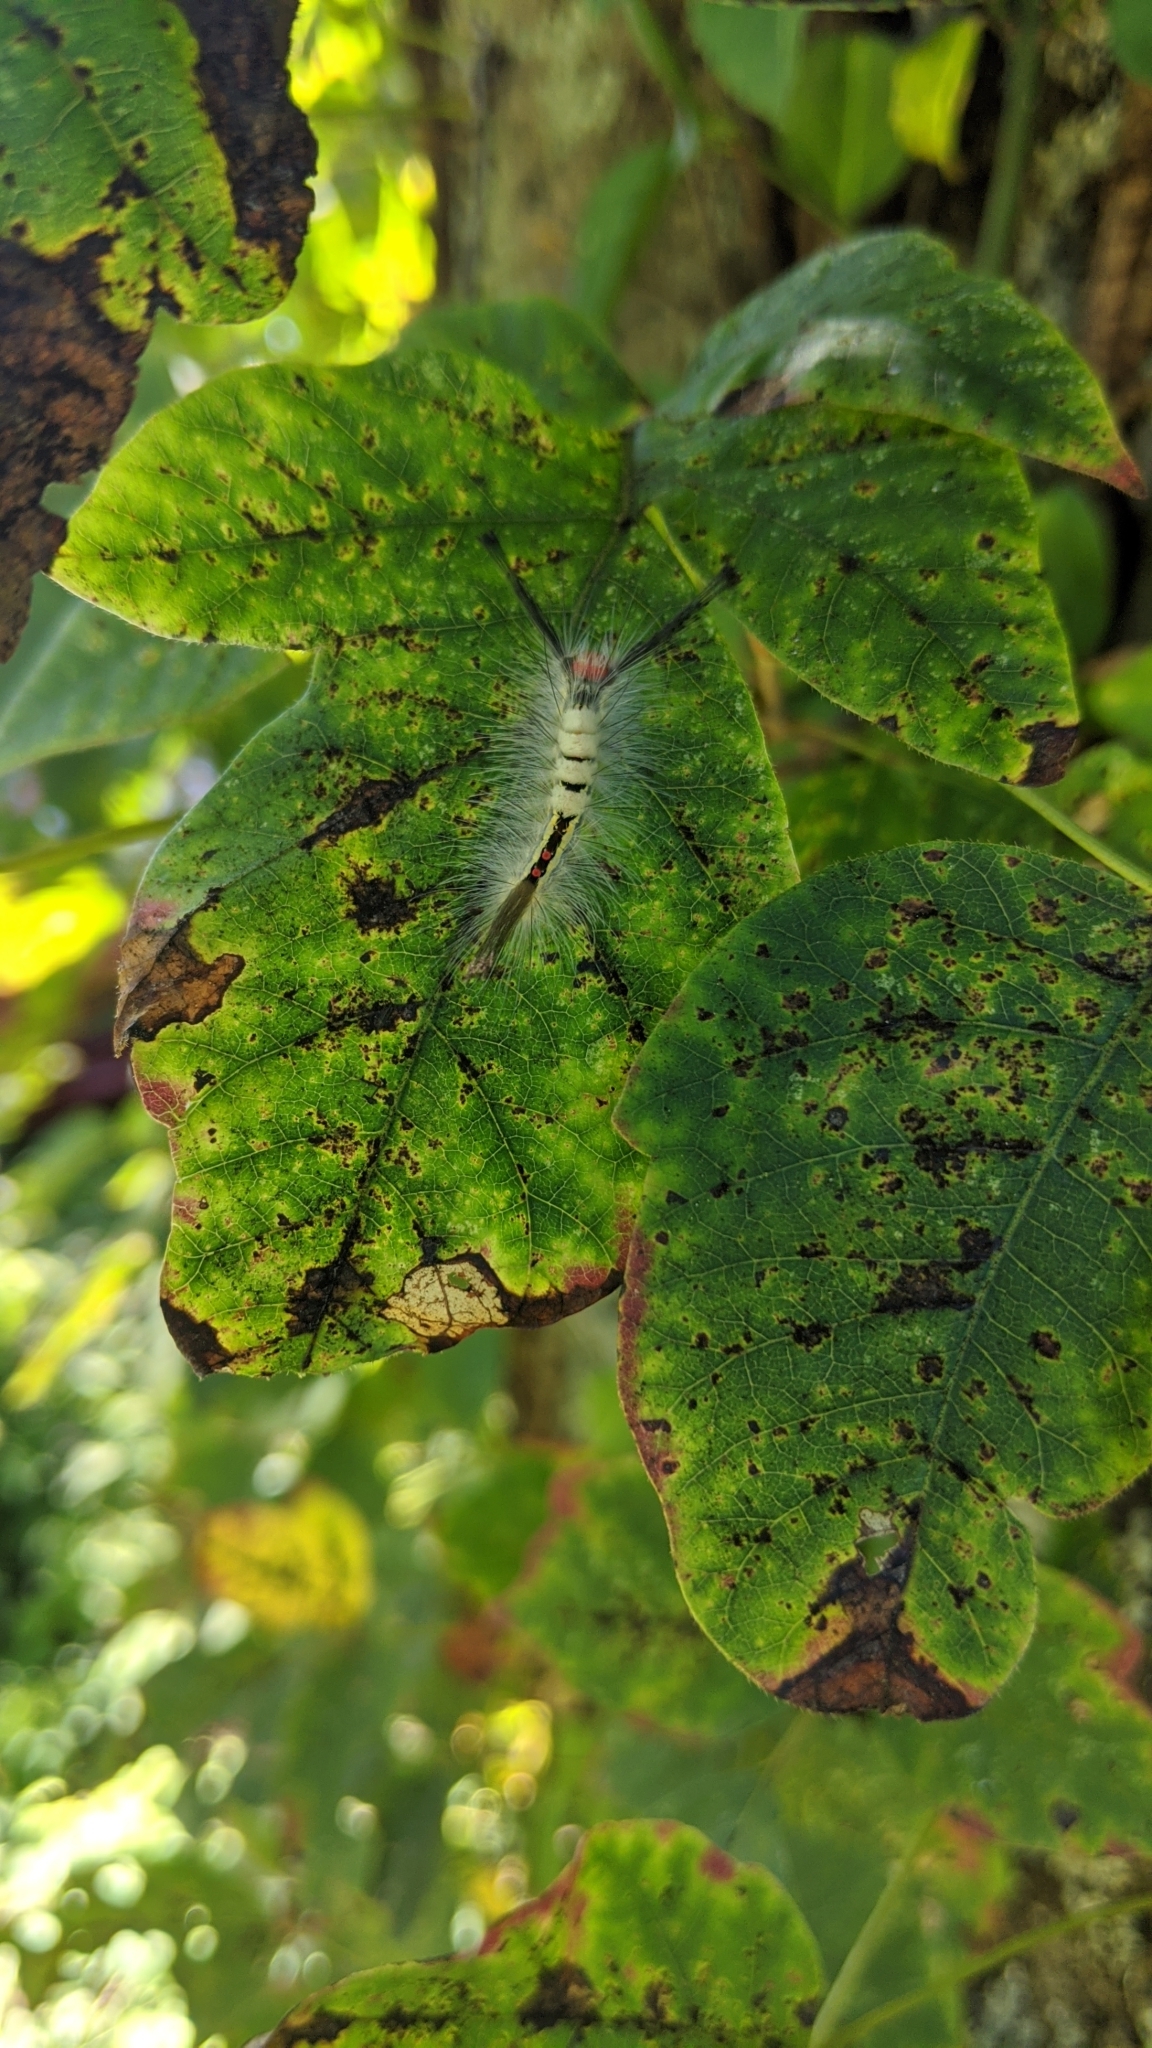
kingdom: Animalia
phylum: Arthropoda
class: Insecta
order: Lepidoptera
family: Erebidae
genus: Orgyia
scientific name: Orgyia leucostigma
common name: White-marked tussock moth
